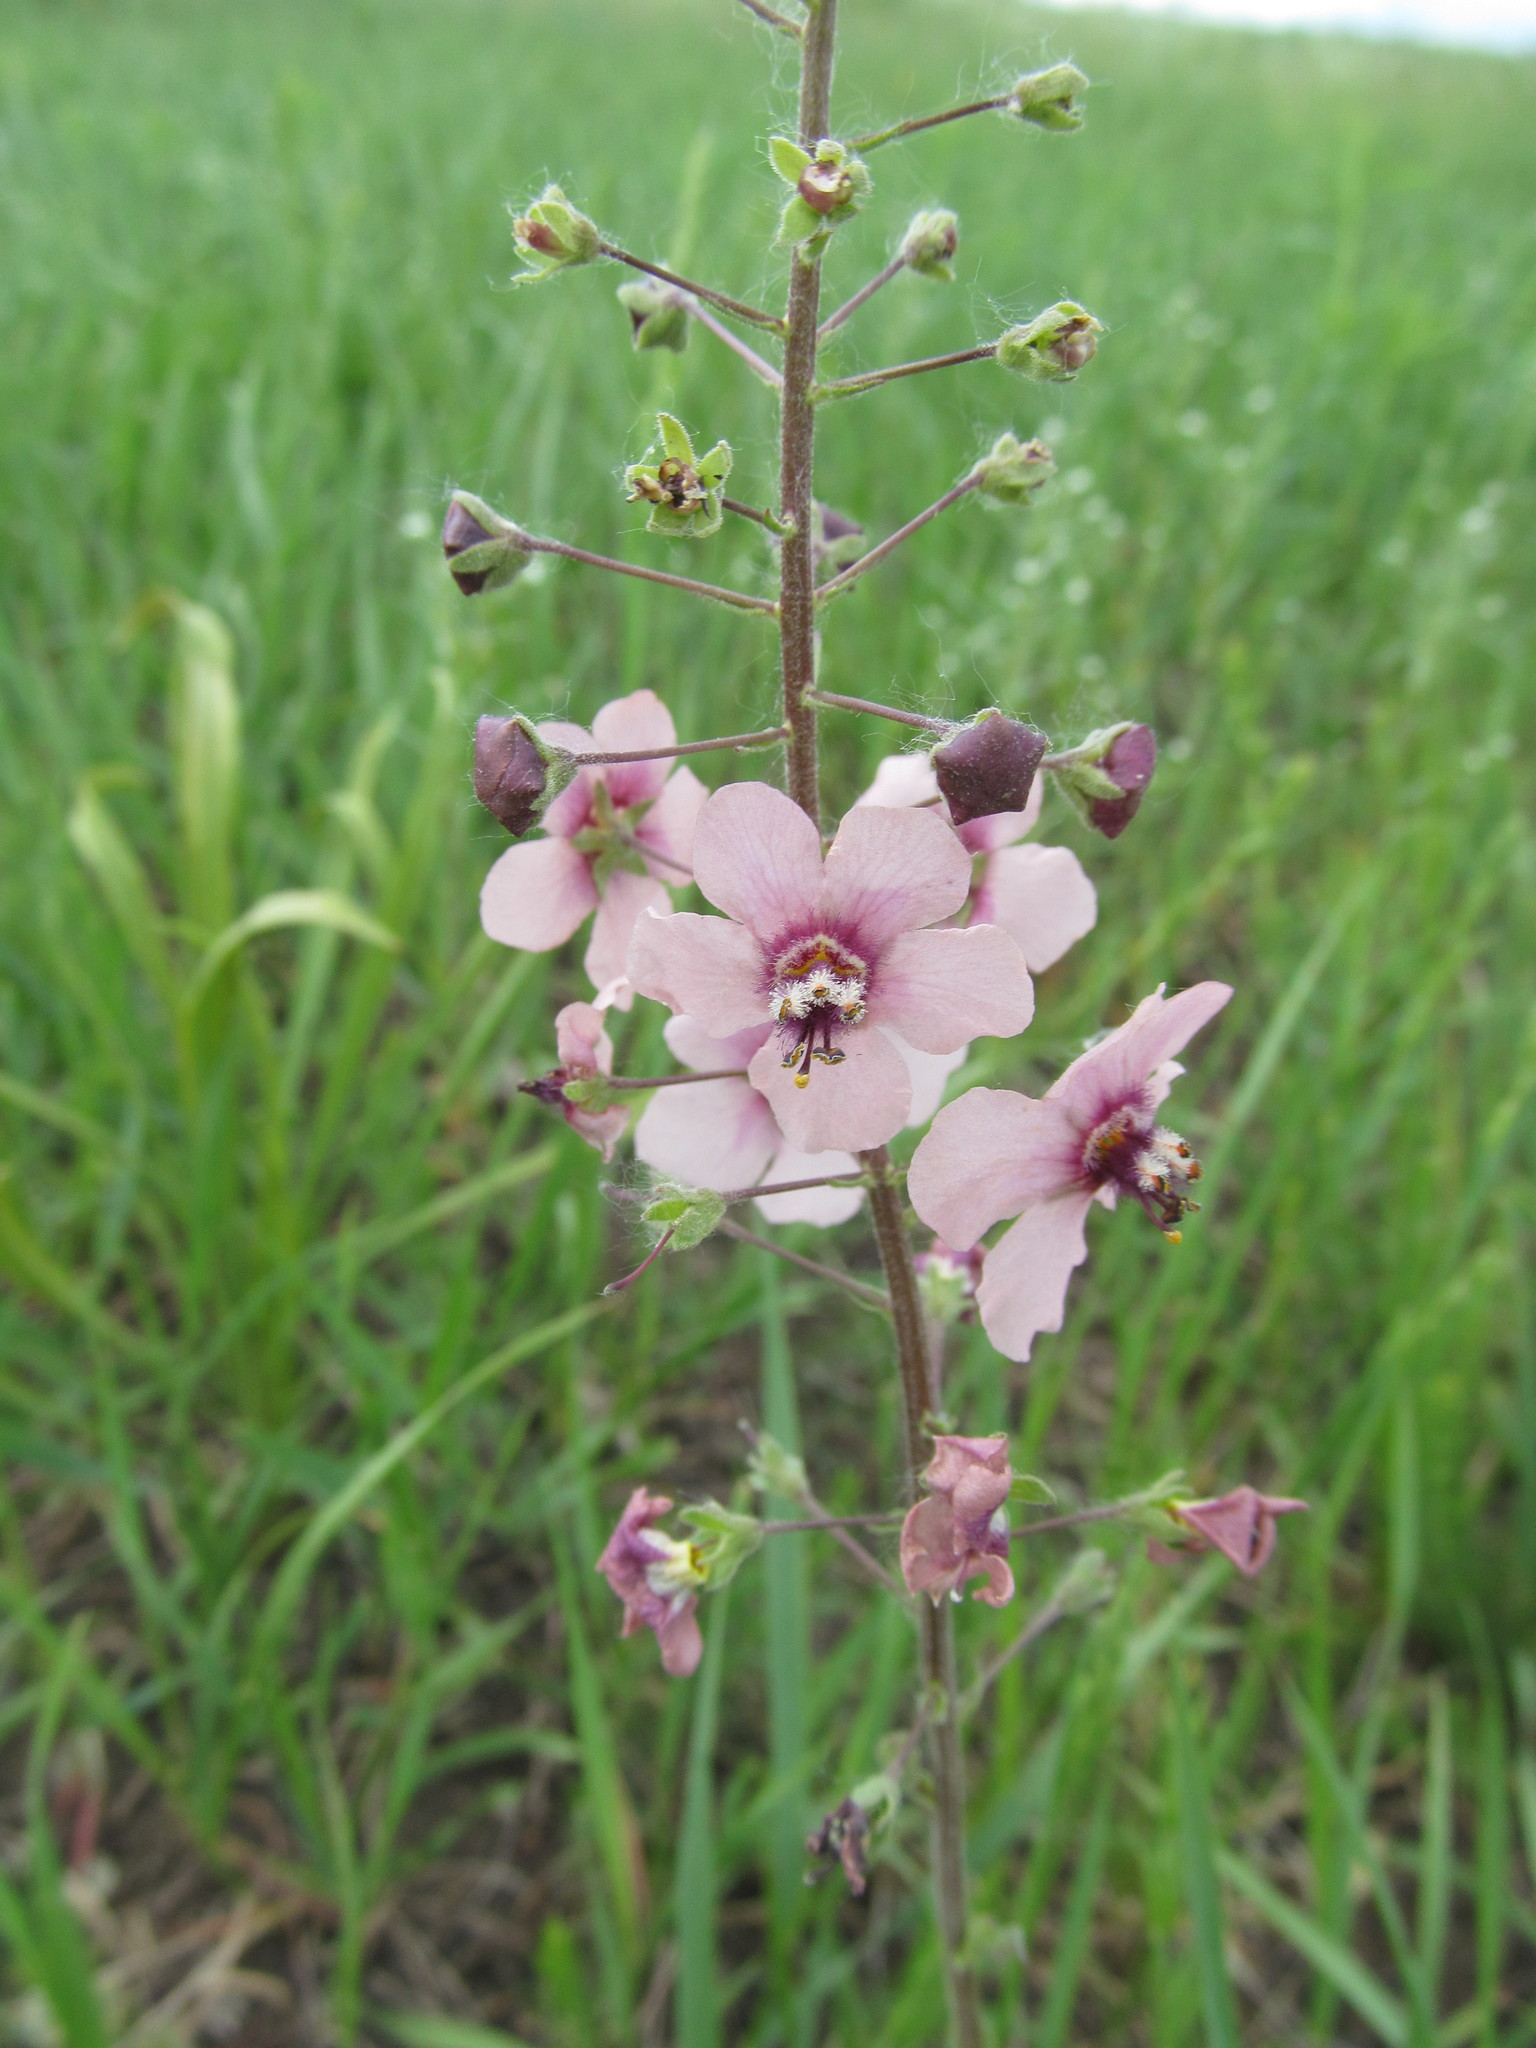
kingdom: Plantae
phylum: Tracheophyta
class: Magnoliopsida
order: Lamiales
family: Scrophulariaceae
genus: Verbascum
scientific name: Verbascum phoeniceum
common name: Purple mullein
